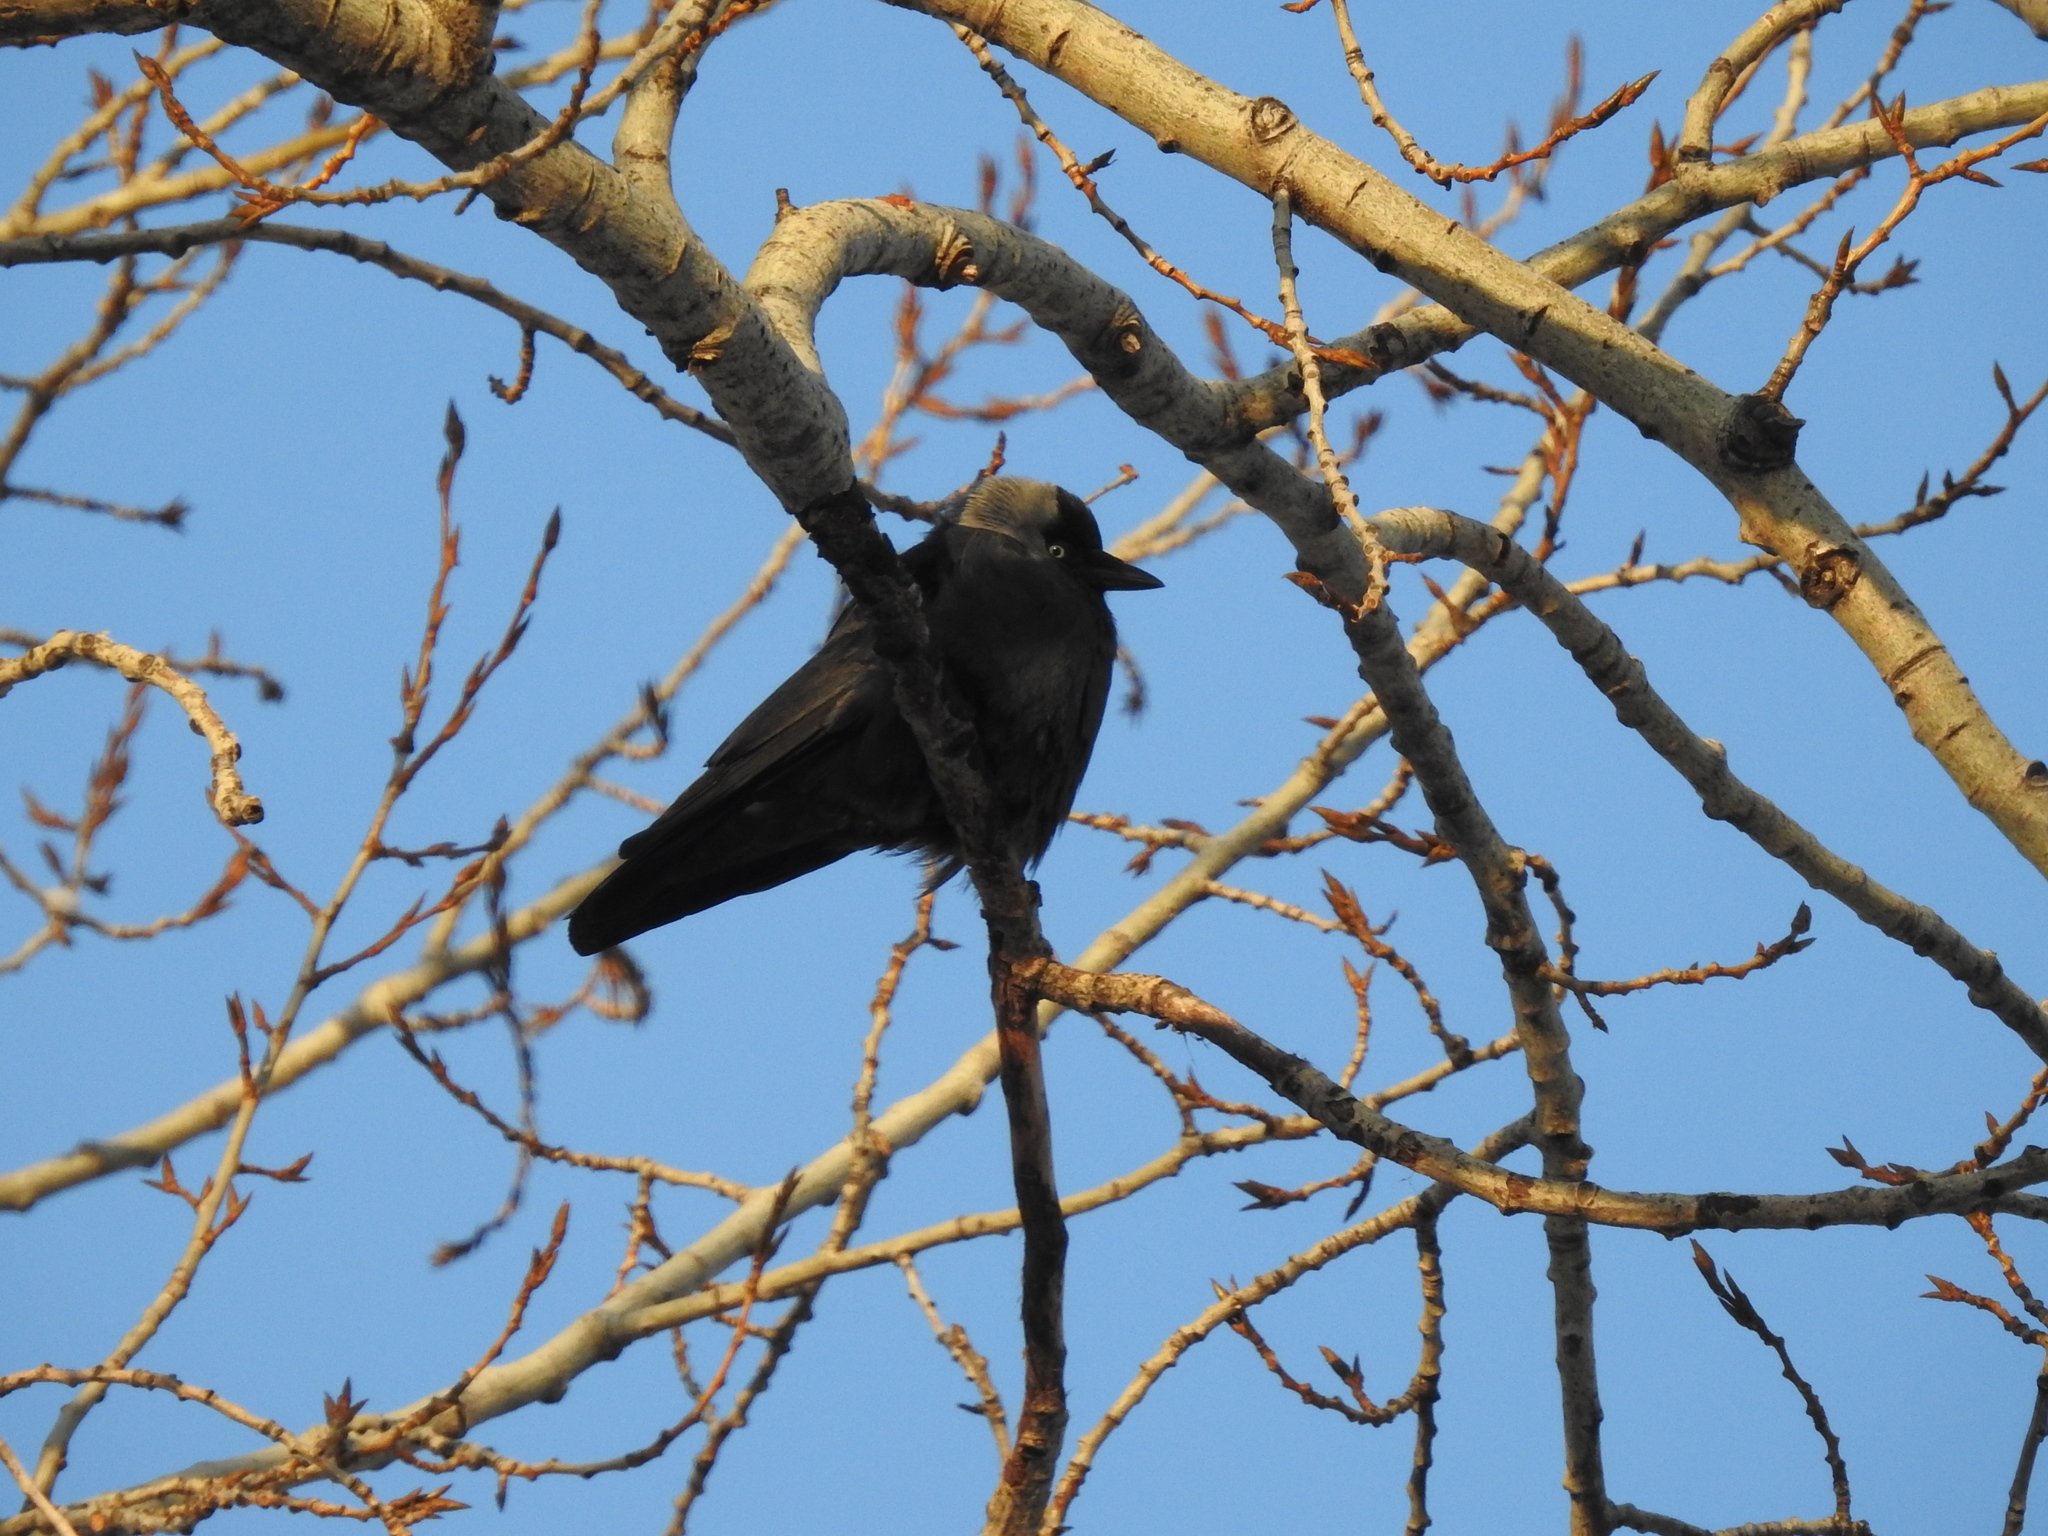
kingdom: Animalia
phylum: Chordata
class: Aves
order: Passeriformes
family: Corvidae
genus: Coloeus
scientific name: Coloeus monedula
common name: Western jackdaw
